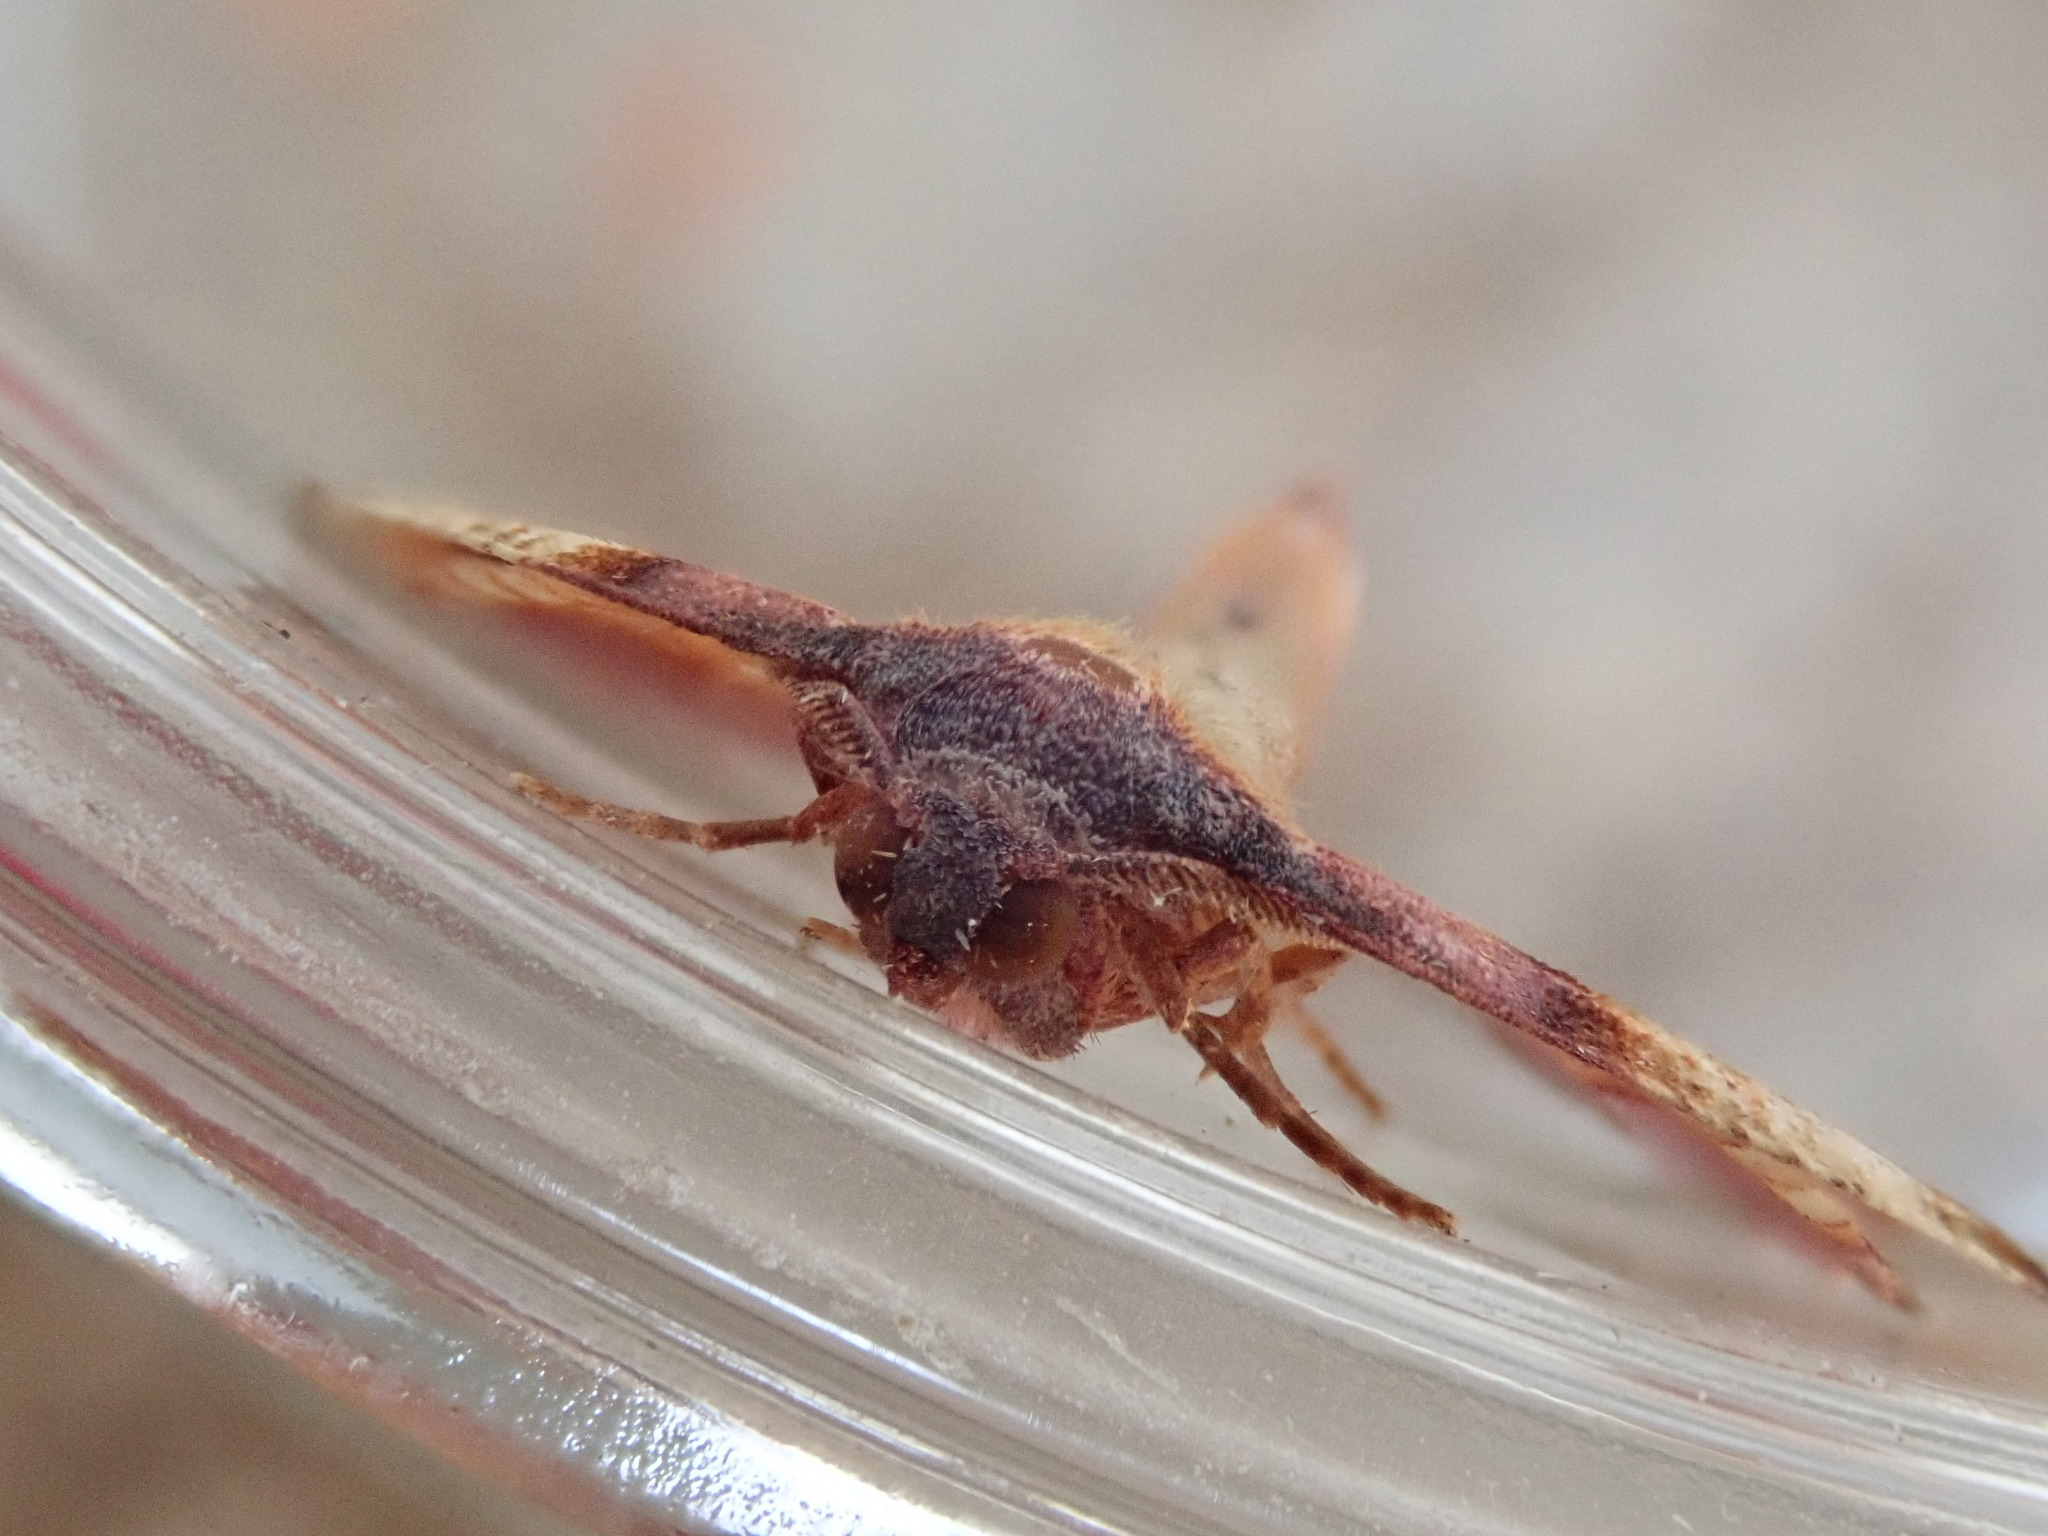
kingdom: Animalia
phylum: Arthropoda
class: Insecta
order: Lepidoptera
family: Geometridae
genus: Plagodis
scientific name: Plagodis phlogosaria
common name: Straight-lined plagodis
